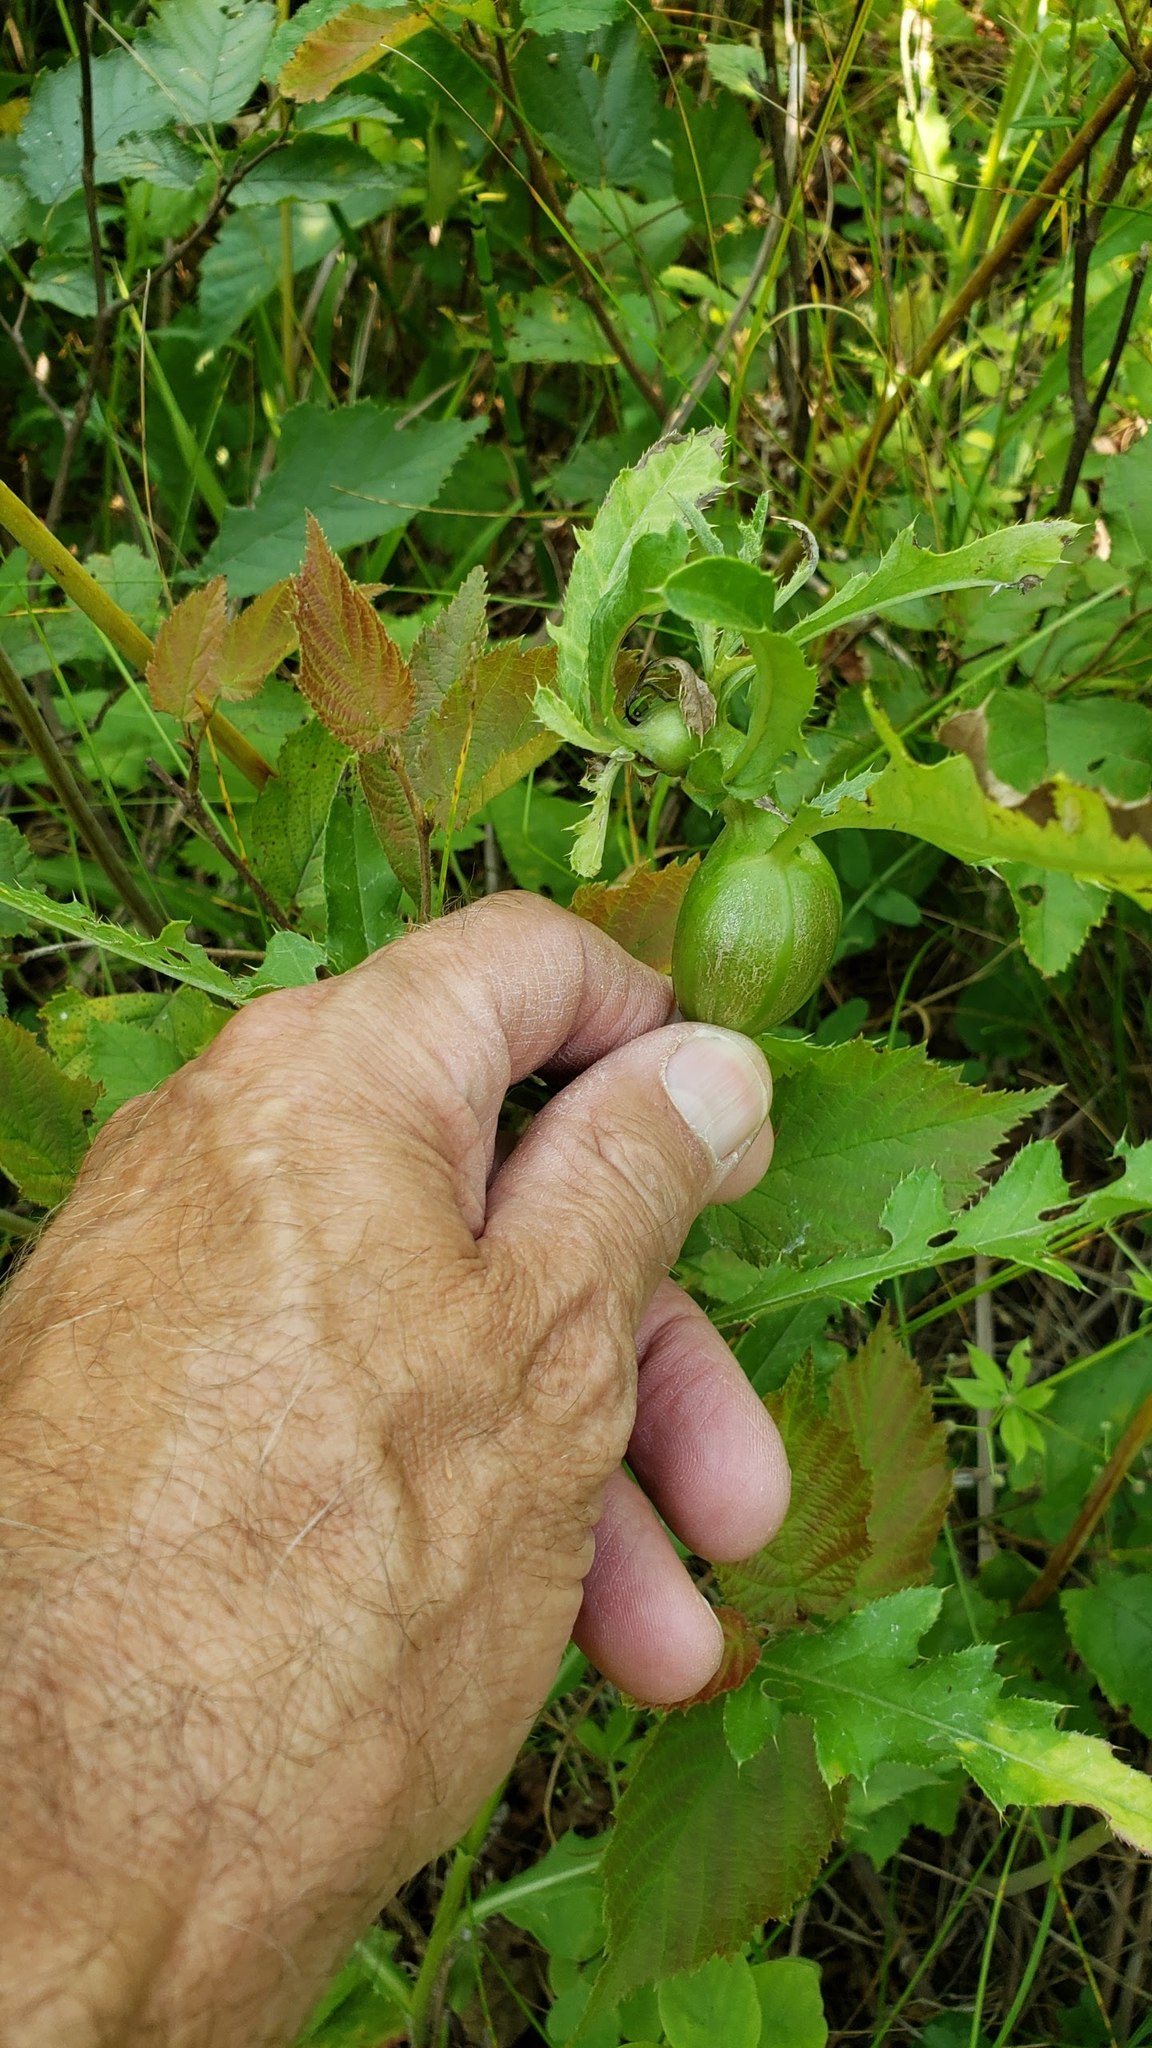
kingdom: Animalia
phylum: Arthropoda
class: Insecta
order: Diptera
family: Tephritidae
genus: Urophora
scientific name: Urophora cardui
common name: Fruit fly
